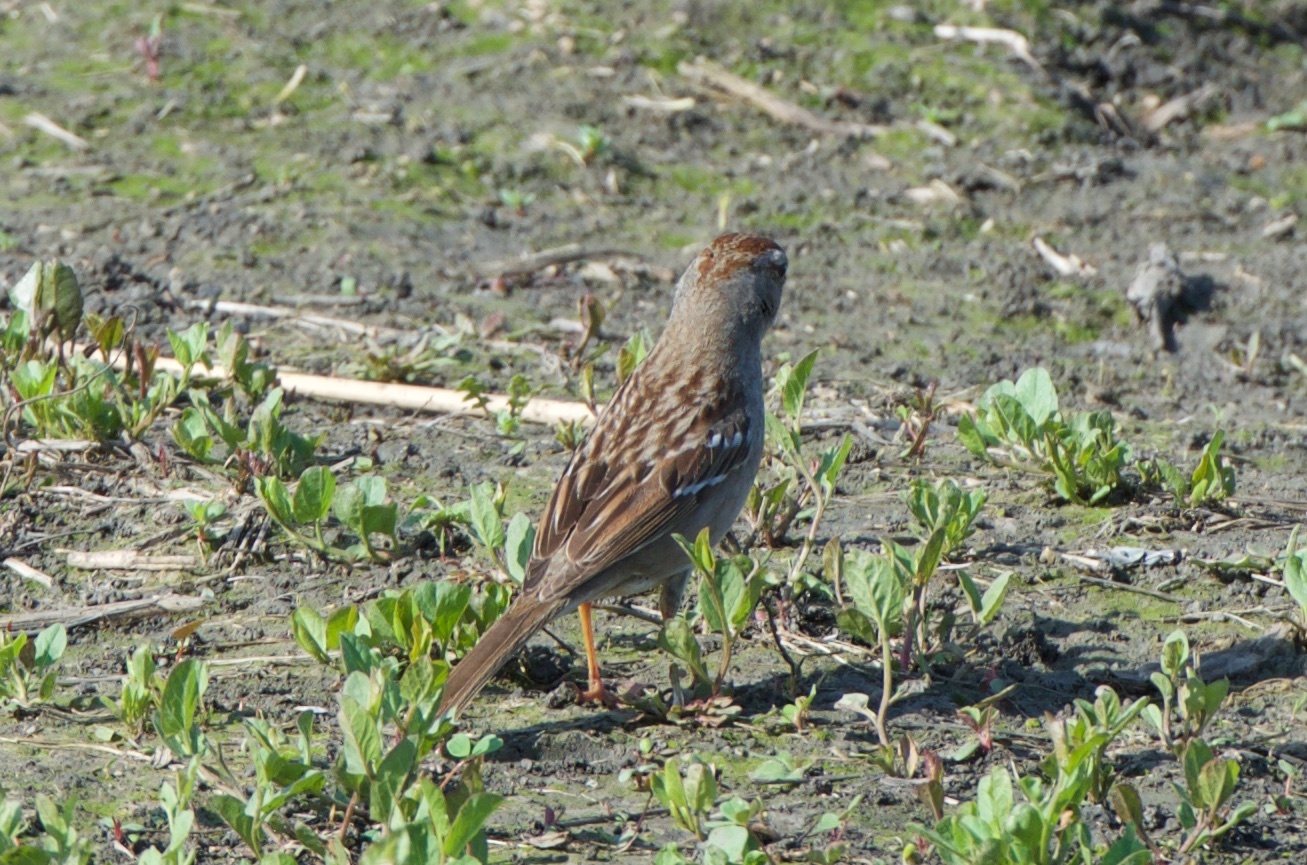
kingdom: Animalia
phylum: Chordata
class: Aves
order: Passeriformes
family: Passerellidae
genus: Zonotrichia
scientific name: Zonotrichia leucophrys
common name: White-crowned sparrow
